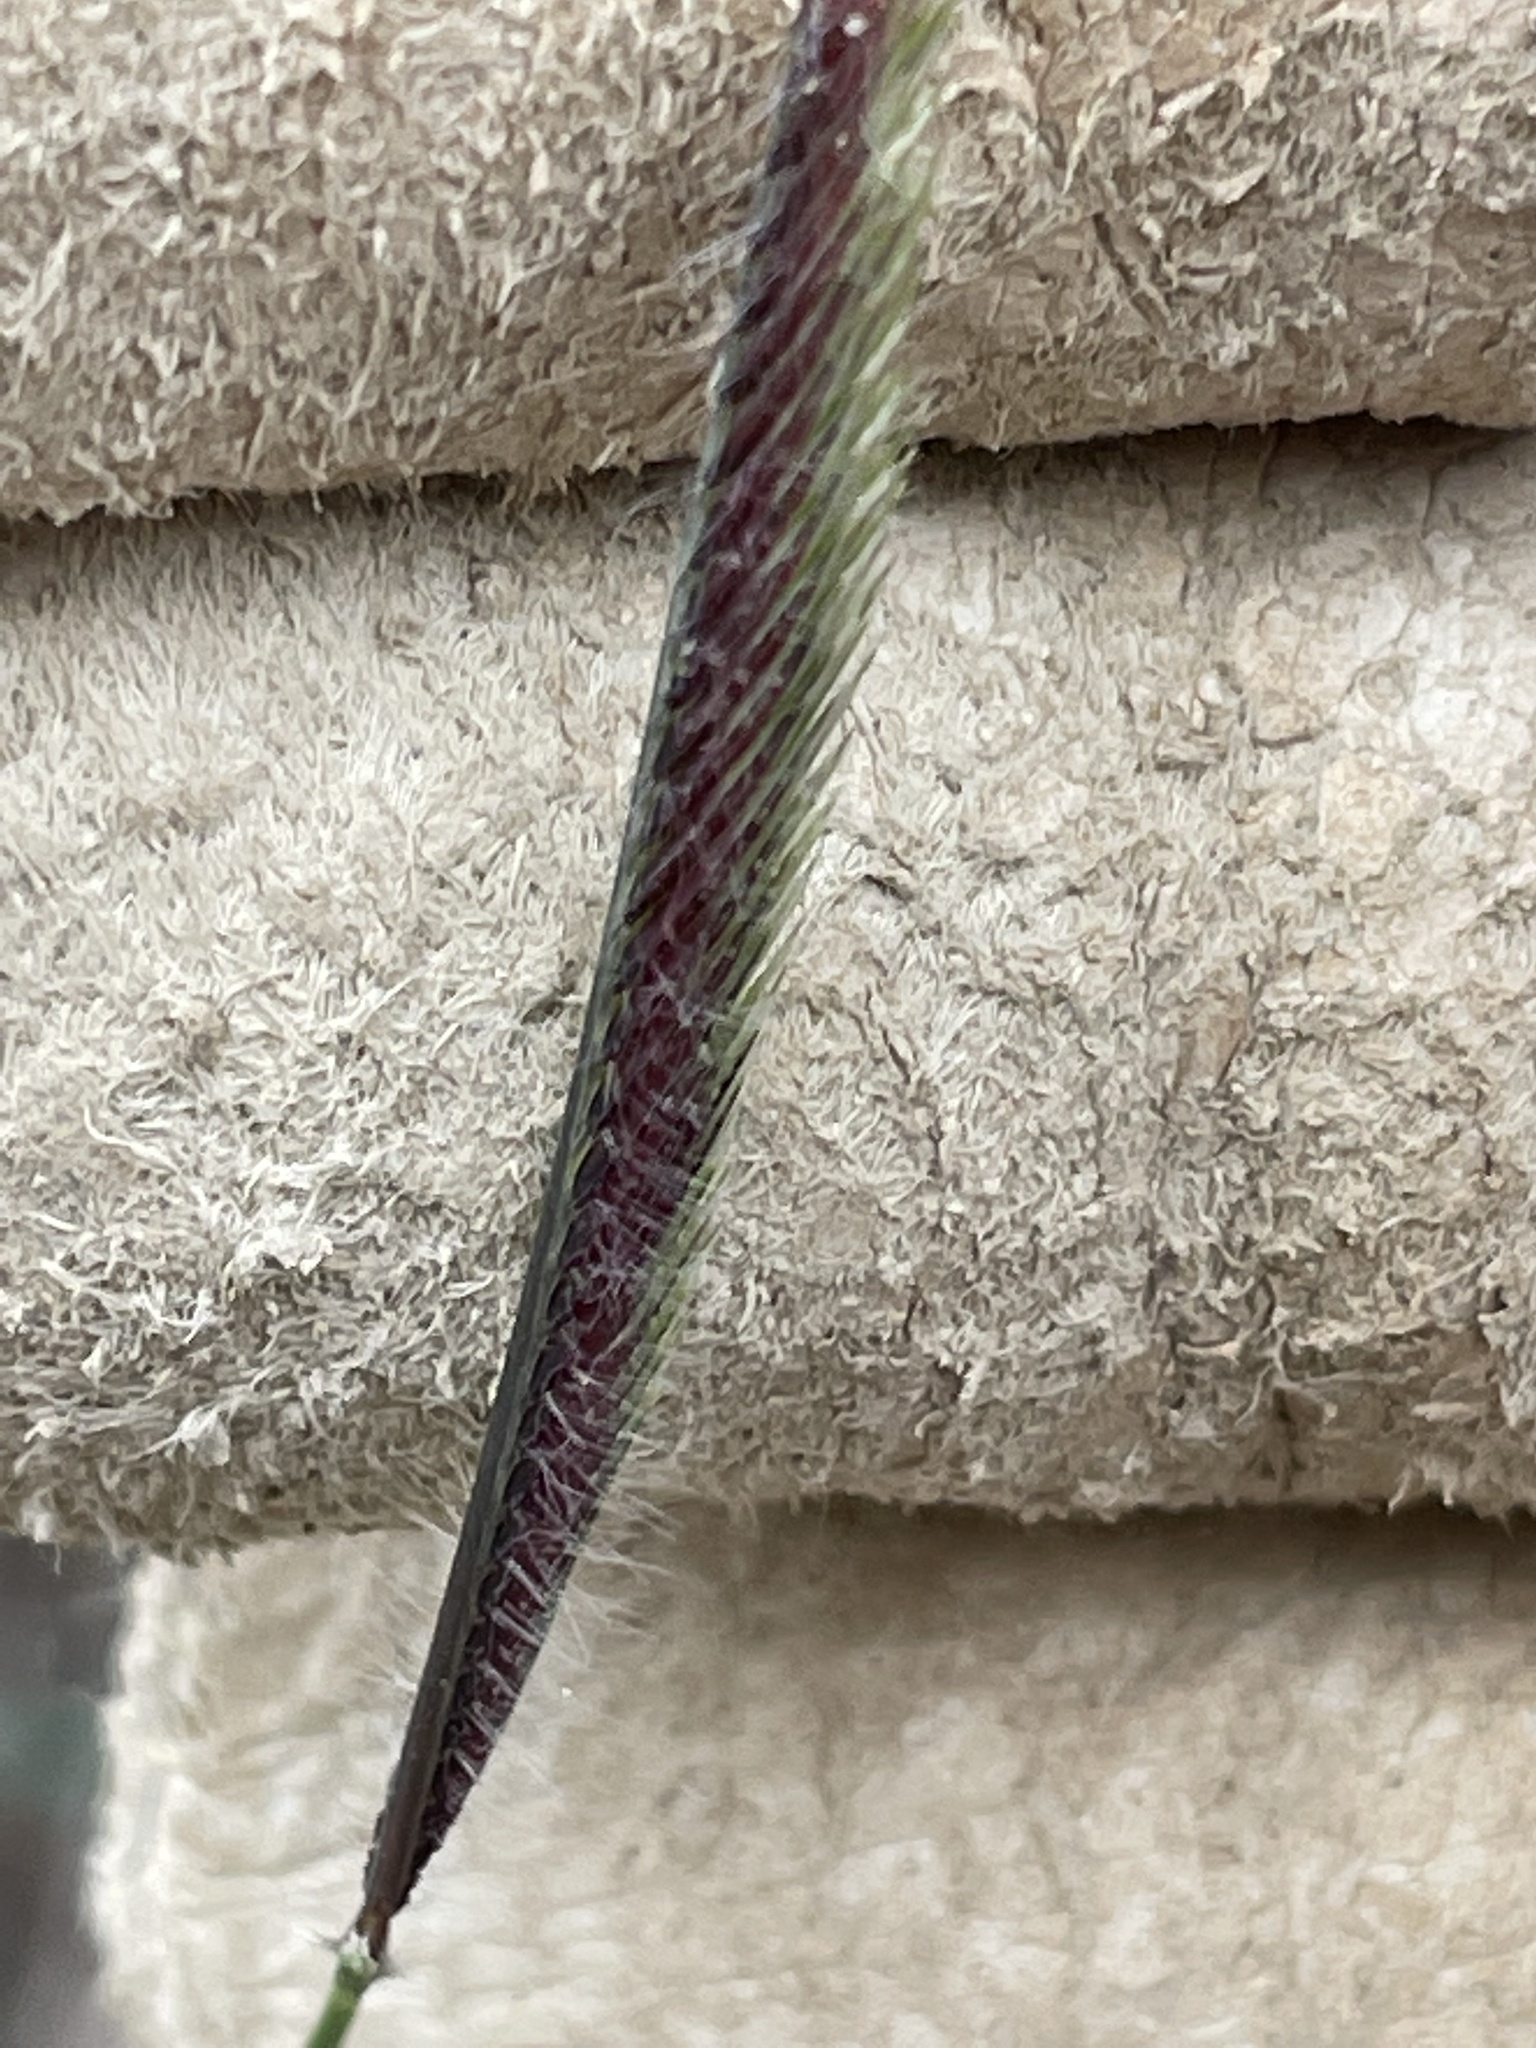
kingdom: Plantae
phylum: Tracheophyta
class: Liliopsida
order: Poales
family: Poaceae
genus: Bouteloua
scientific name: Bouteloua gracilis
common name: Blue grama
